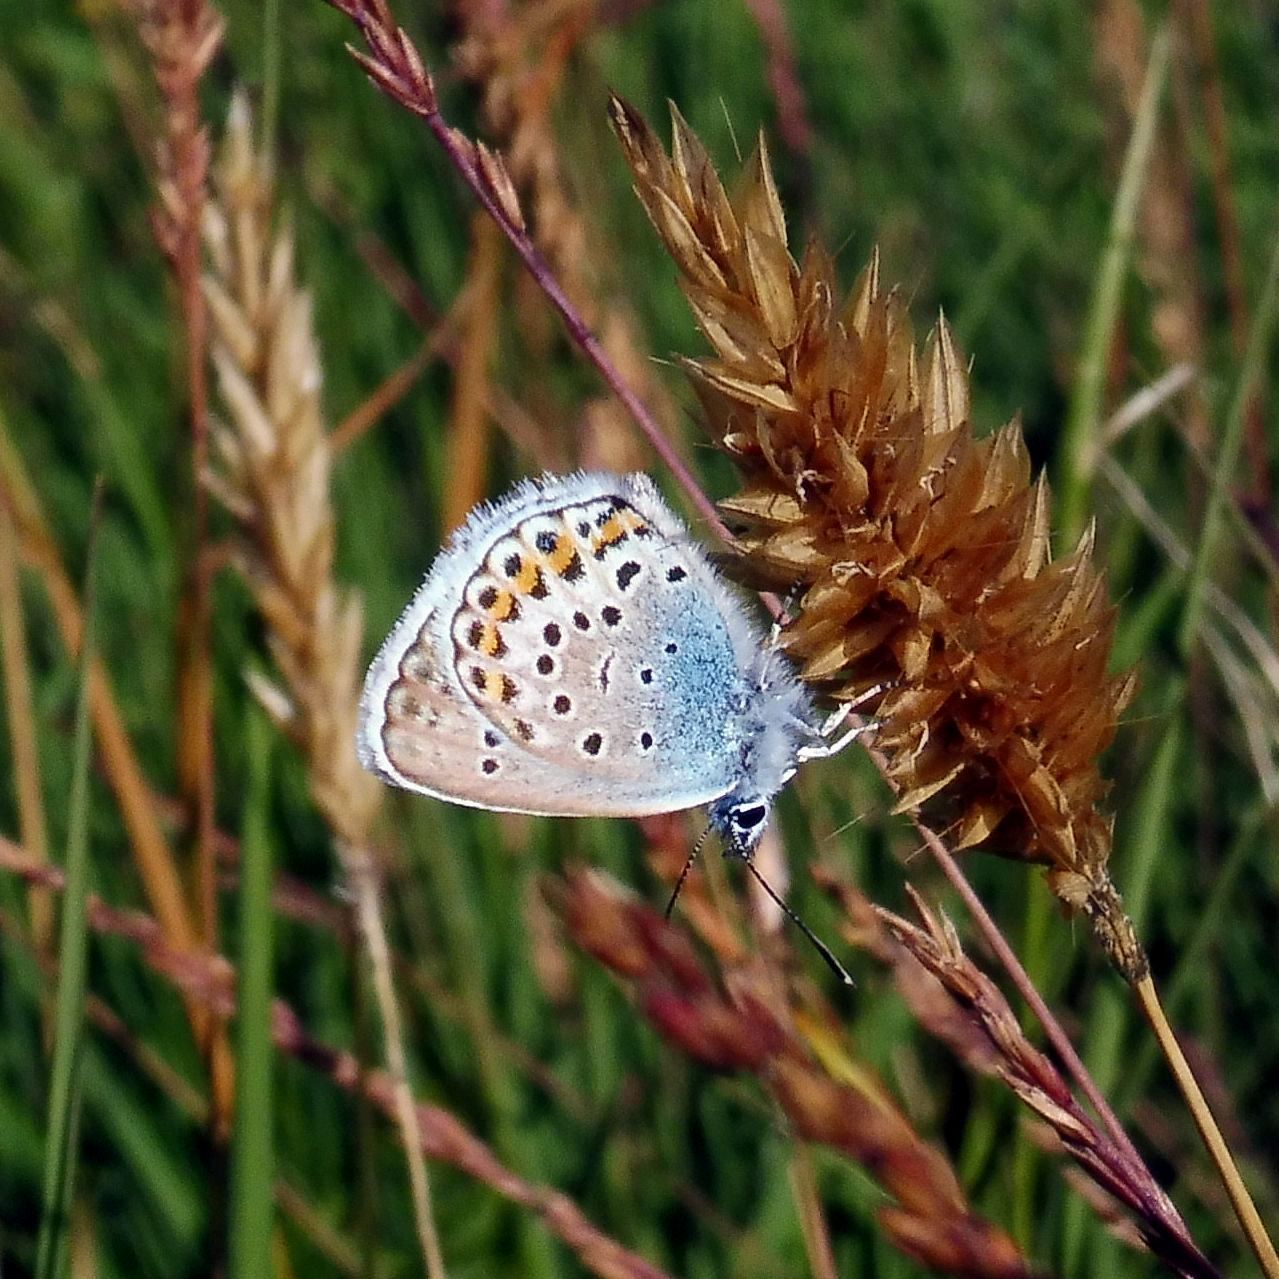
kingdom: Animalia
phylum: Arthropoda
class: Insecta
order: Lepidoptera
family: Lycaenidae
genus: Plebejus
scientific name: Plebejus argus
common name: Silver-studded blue
